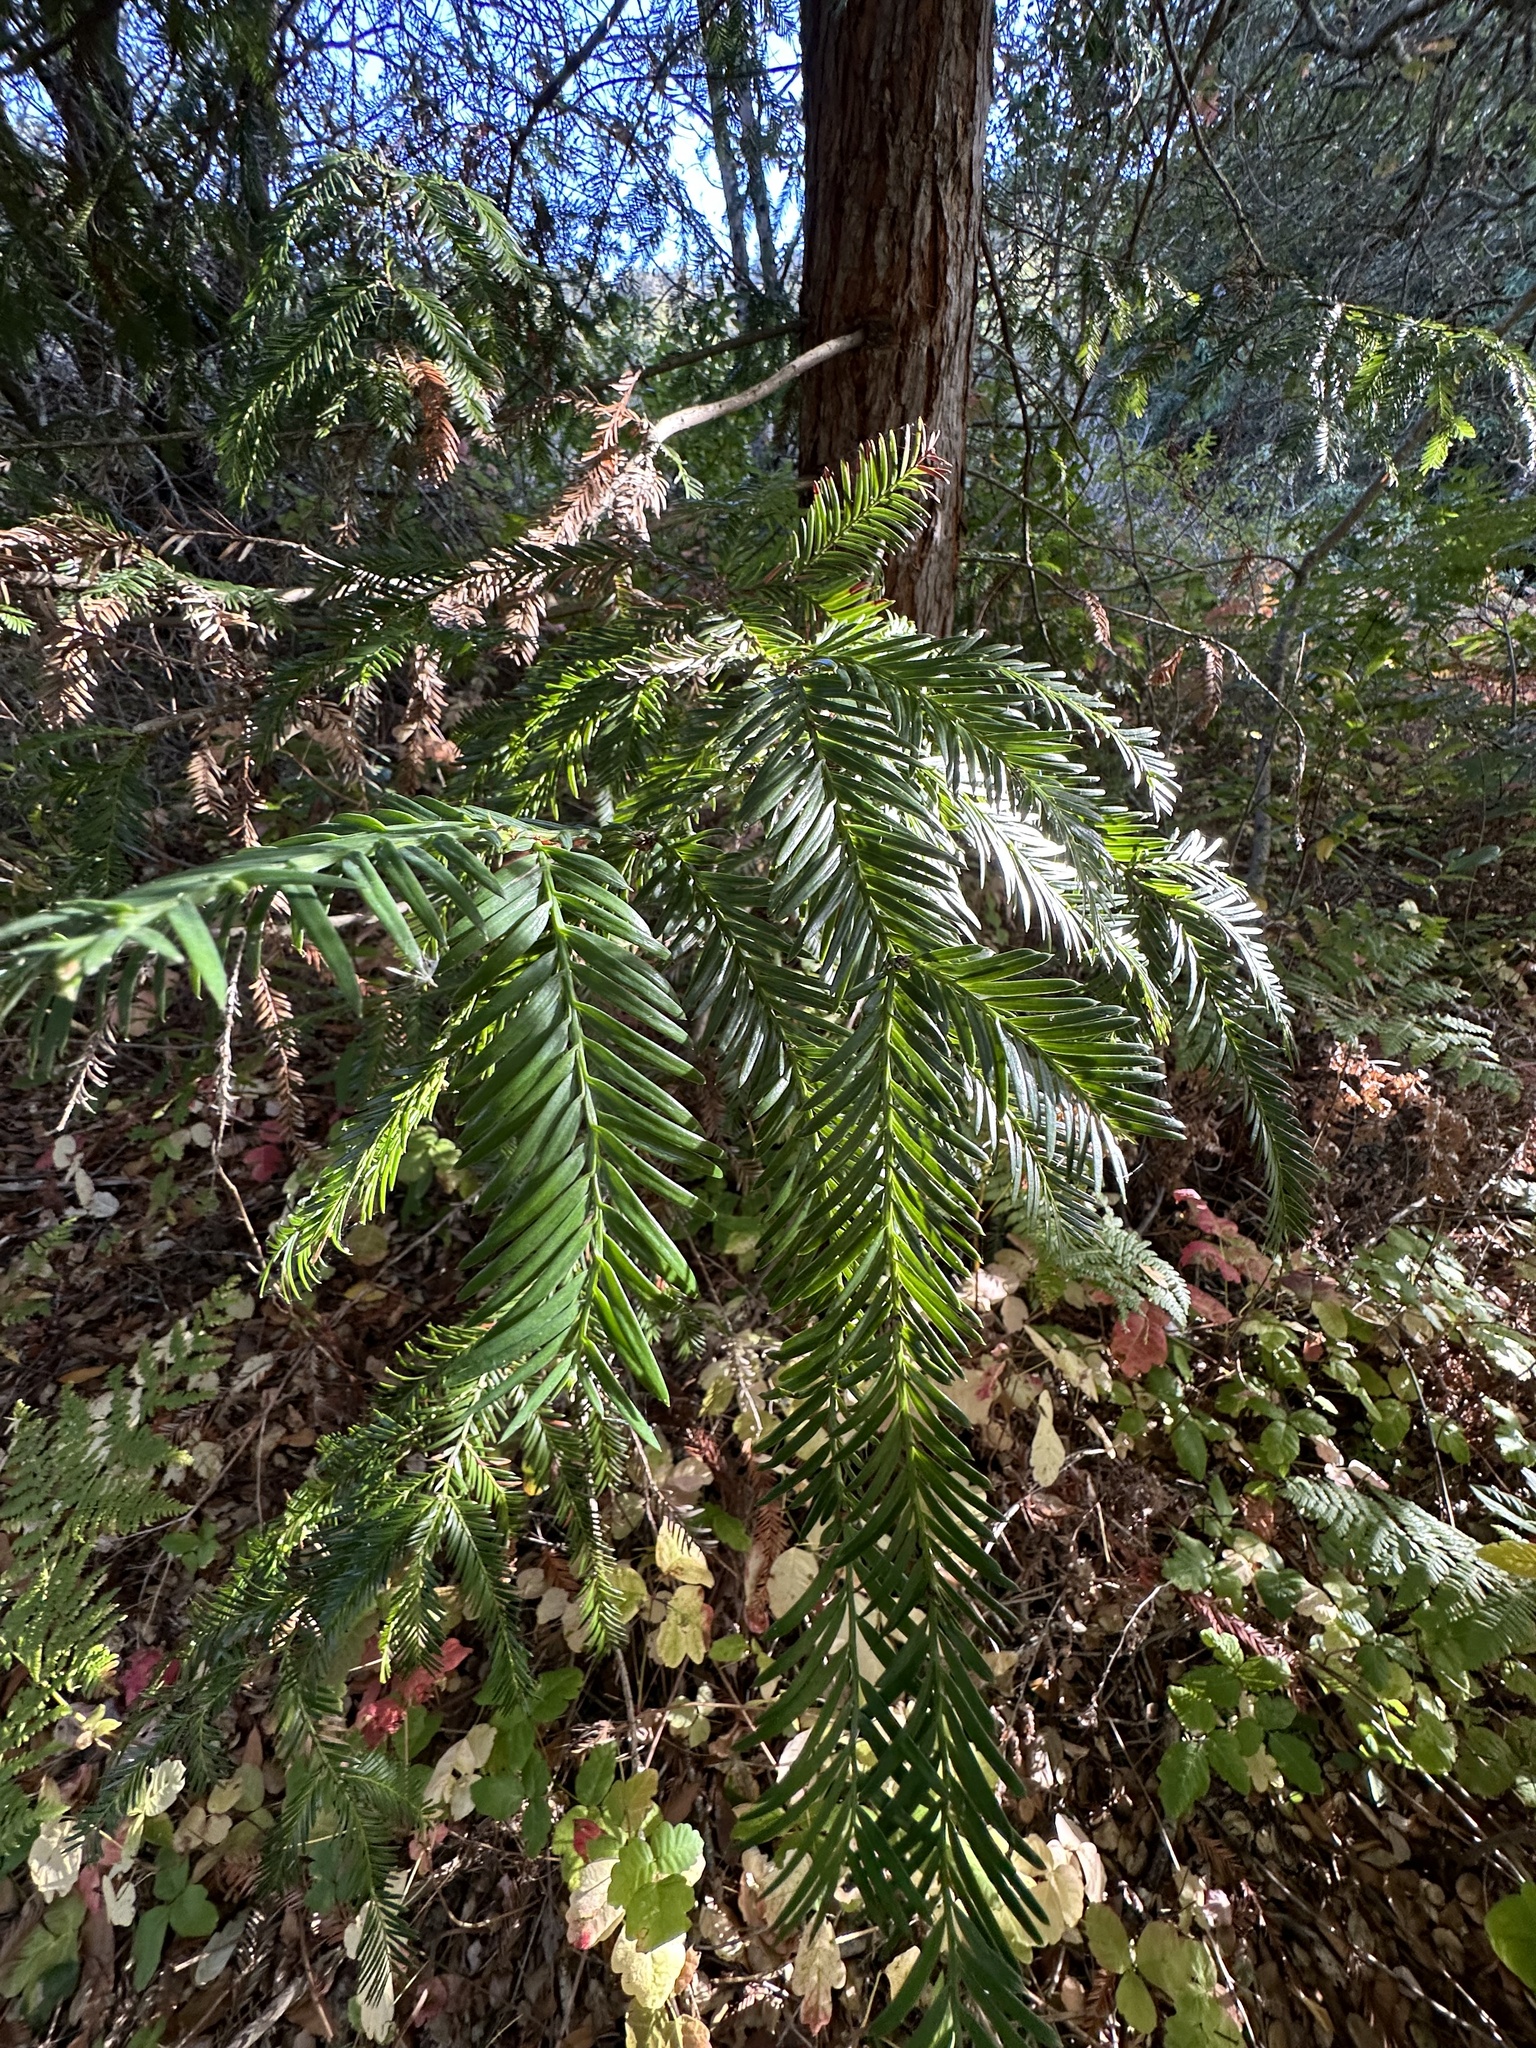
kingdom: Plantae
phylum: Tracheophyta
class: Pinopsida
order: Pinales
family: Cupressaceae
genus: Sequoia
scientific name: Sequoia sempervirens
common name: Coast redwood
